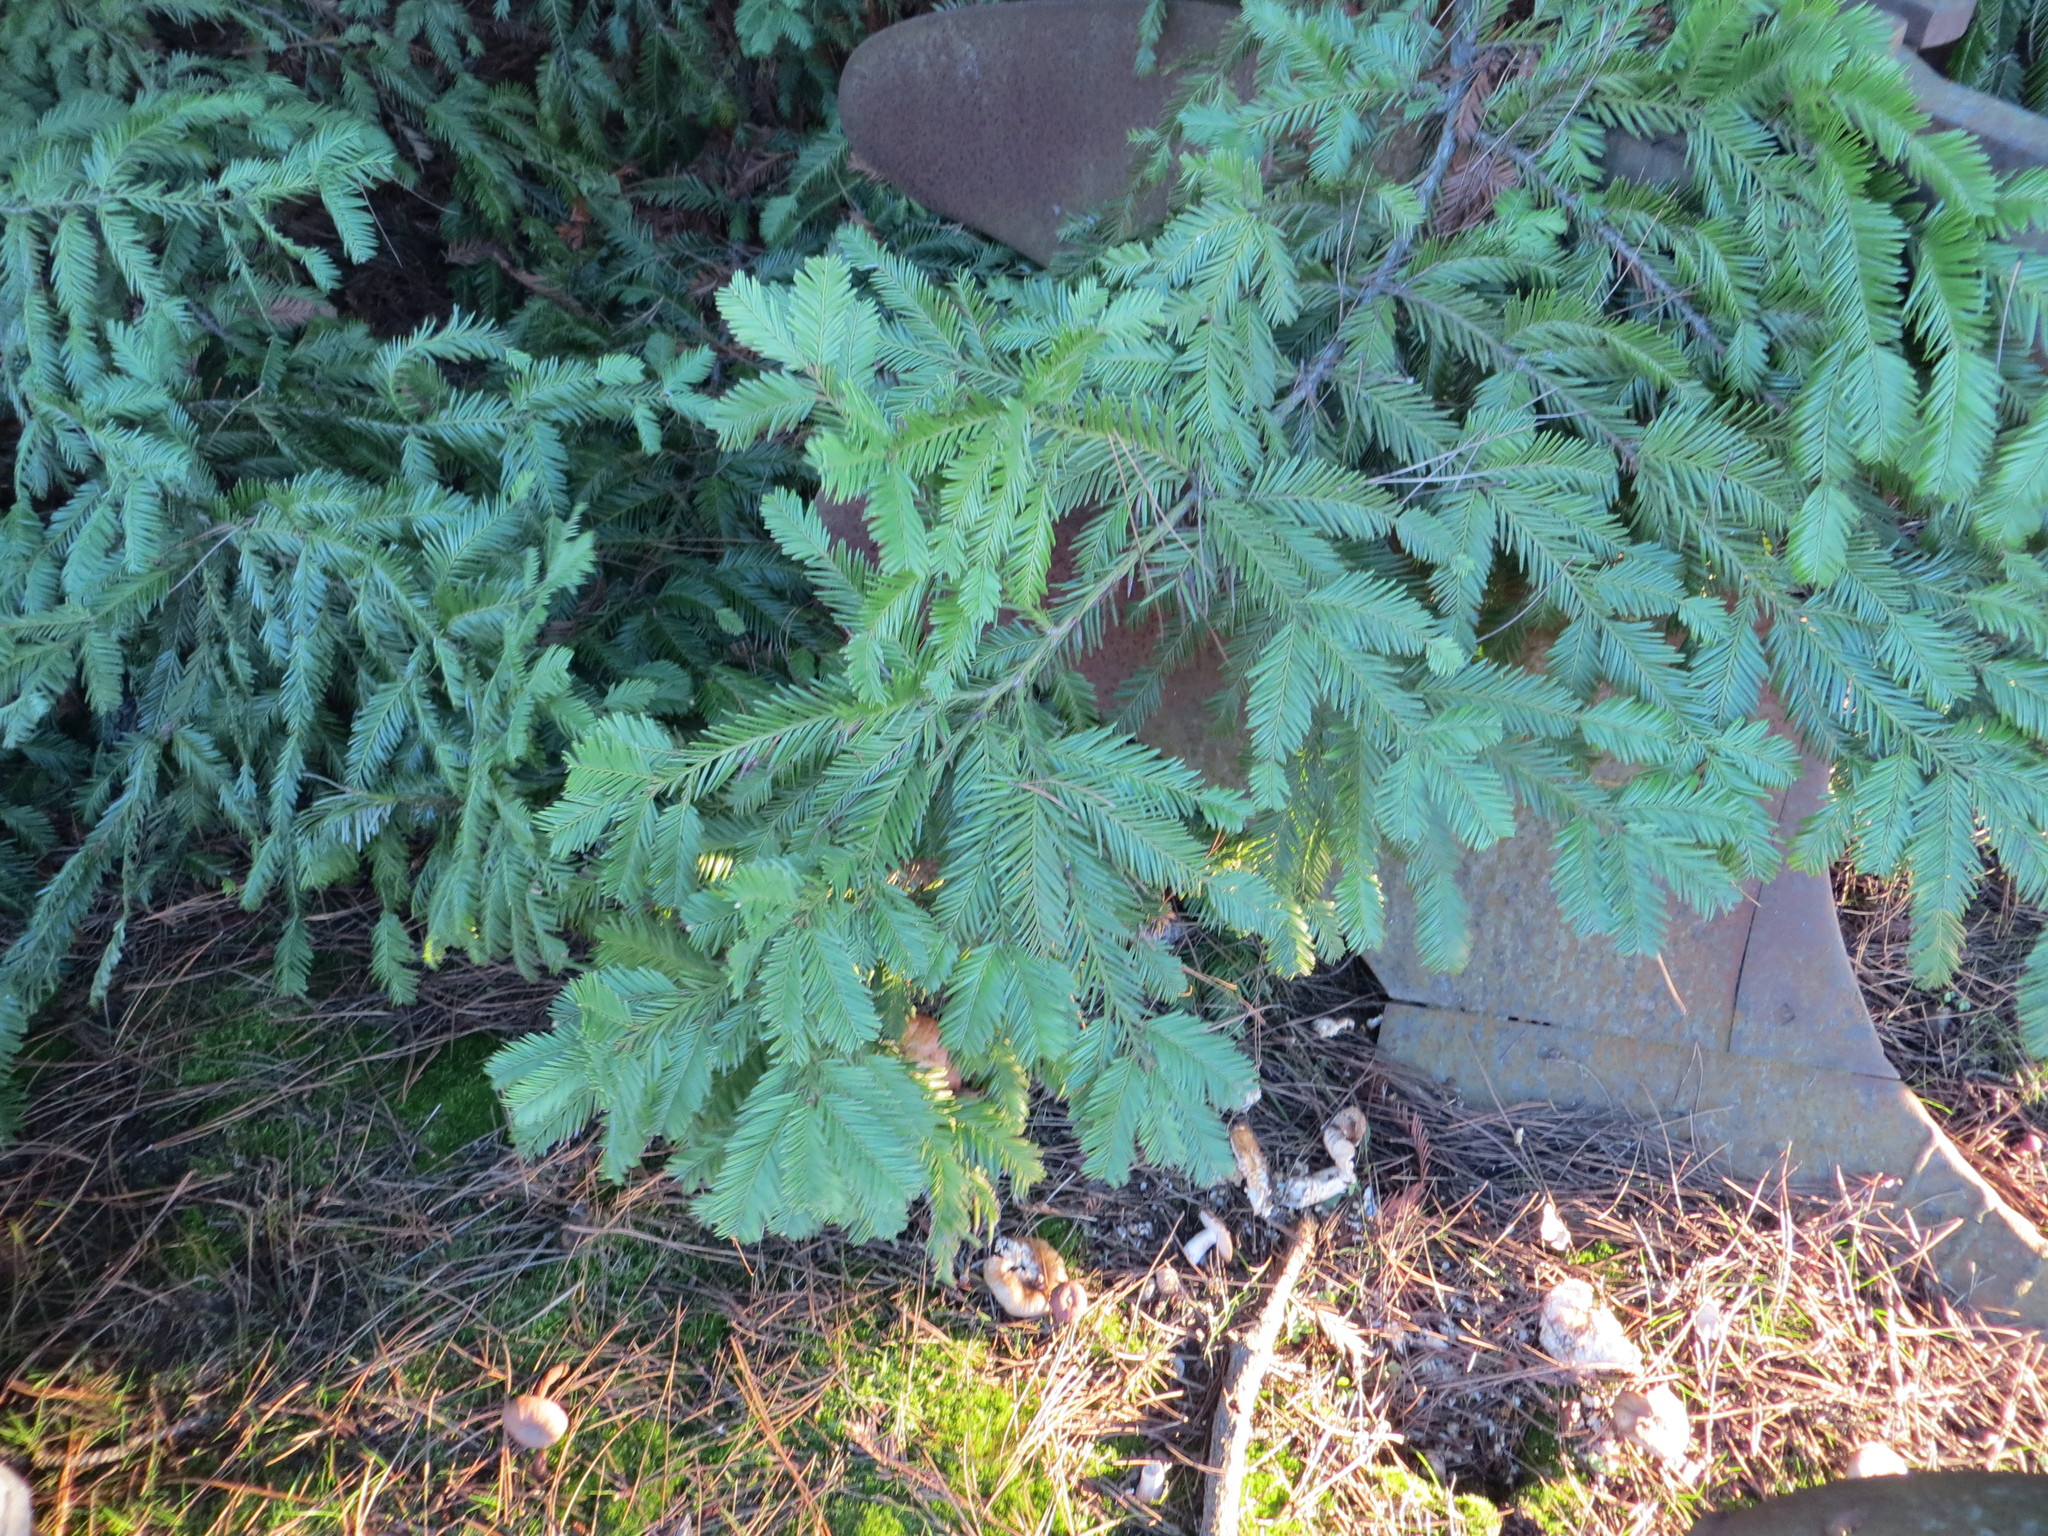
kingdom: Plantae
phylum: Tracheophyta
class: Pinopsida
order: Pinales
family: Cupressaceae
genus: Sequoia
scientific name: Sequoia sempervirens
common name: Coast redwood
